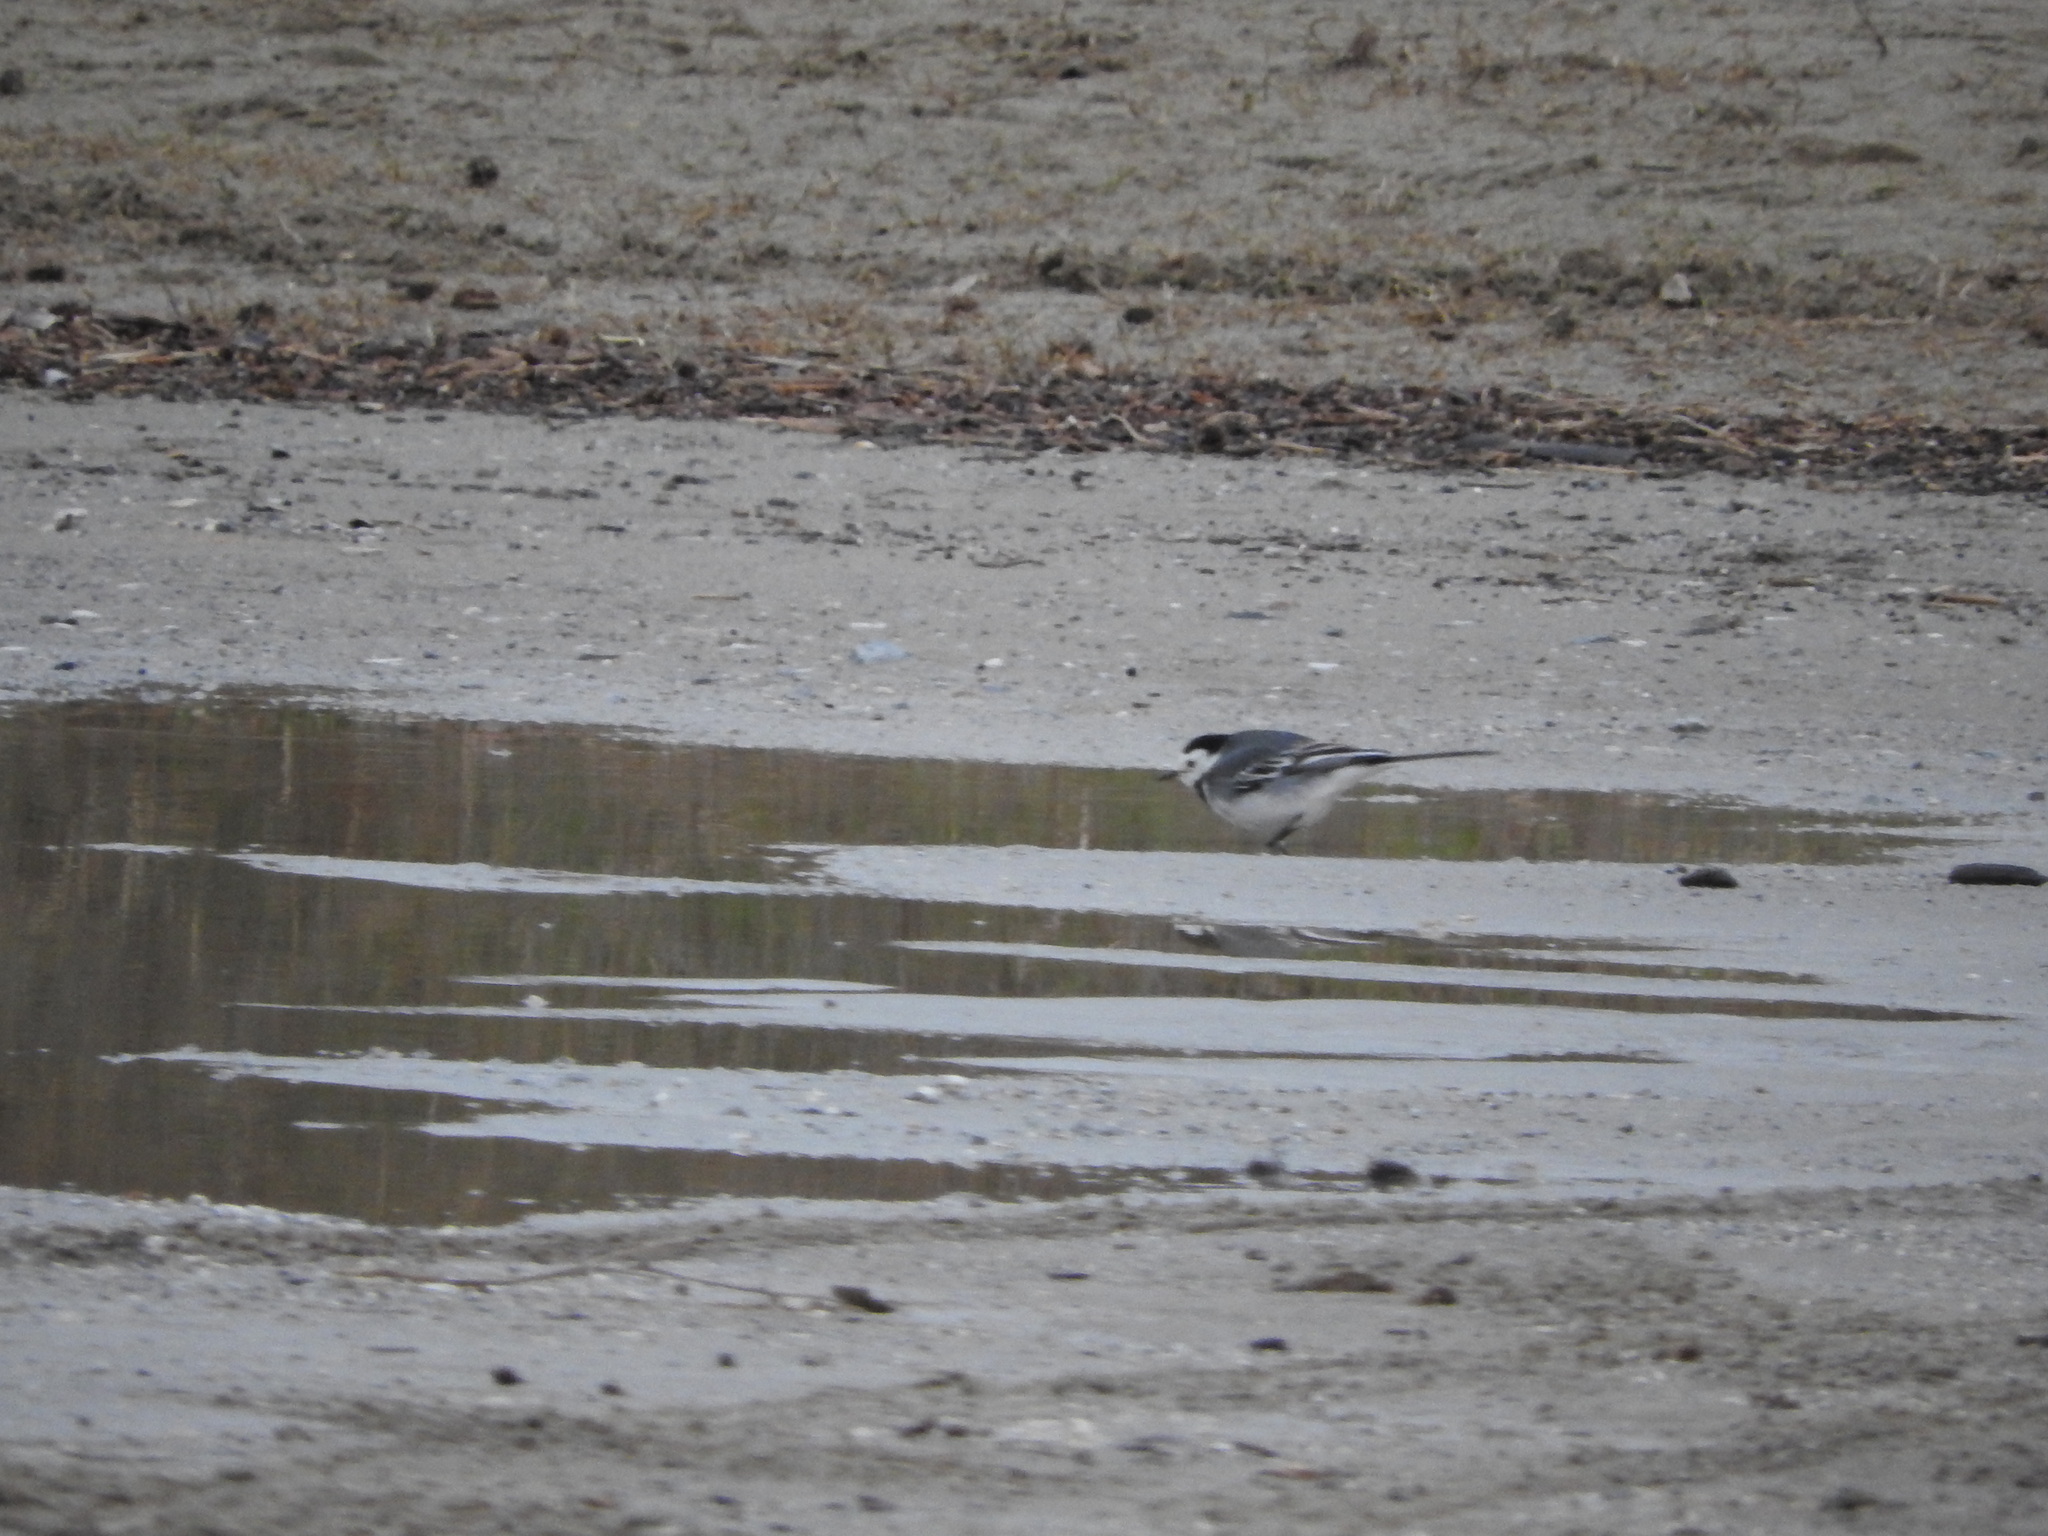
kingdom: Animalia
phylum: Chordata
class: Aves
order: Passeriformes
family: Motacillidae
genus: Motacilla
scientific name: Motacilla alba
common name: White wagtail
